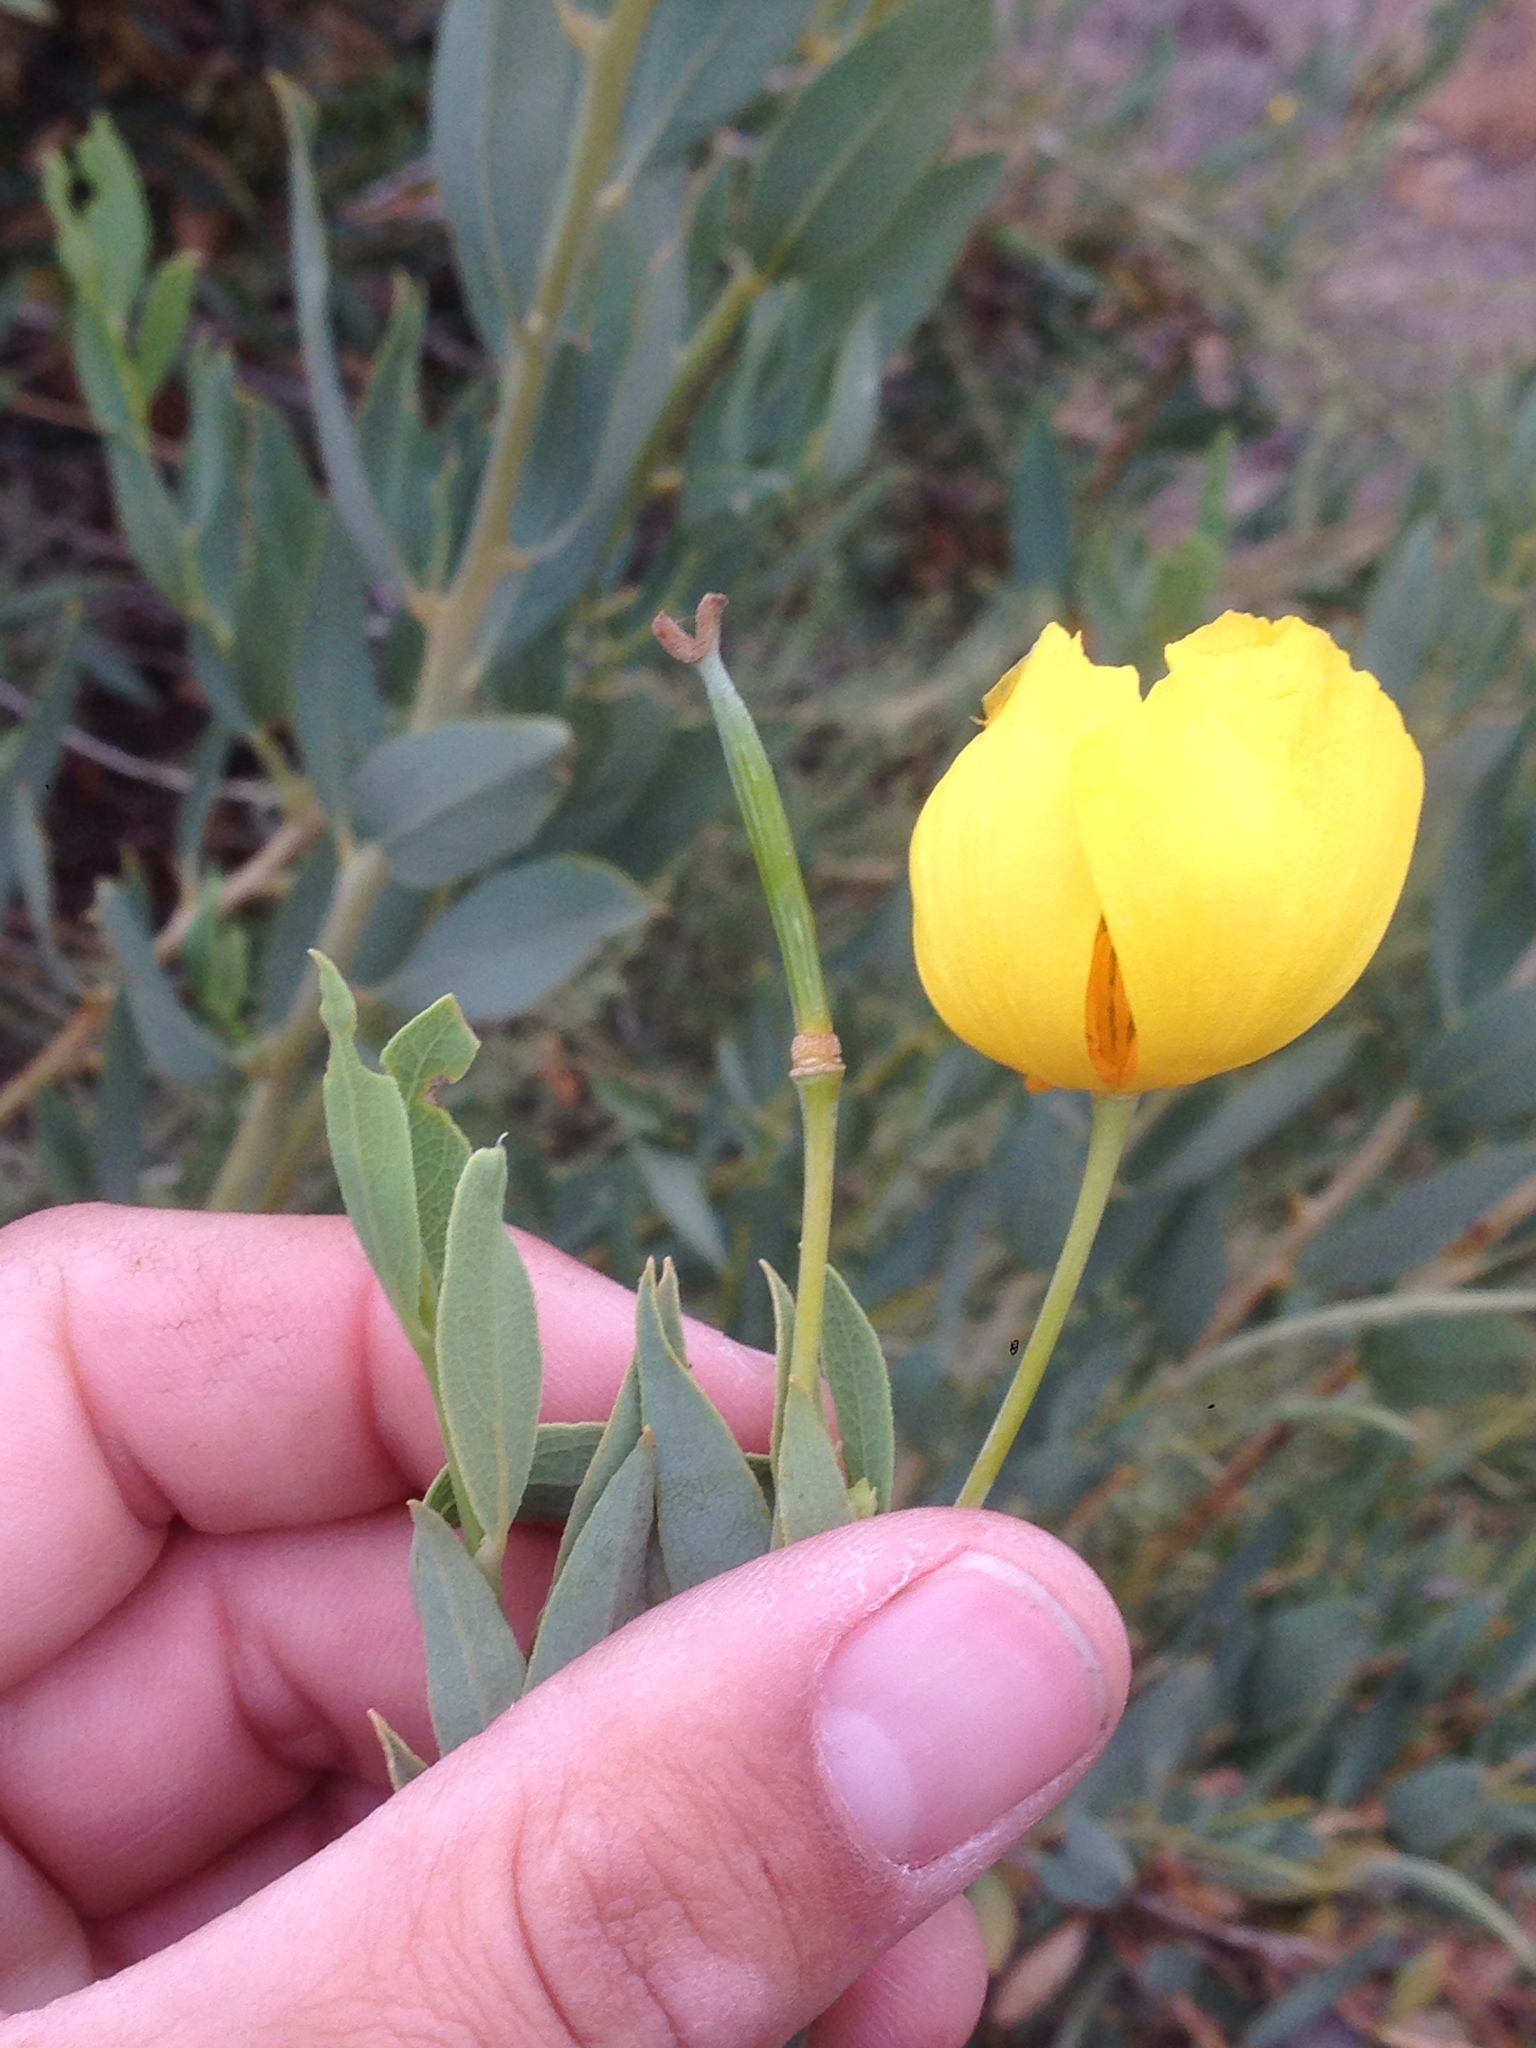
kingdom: Plantae
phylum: Tracheophyta
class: Magnoliopsida
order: Ranunculales
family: Papaveraceae
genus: Dendromecon
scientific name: Dendromecon rigida
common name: Tree poppy
